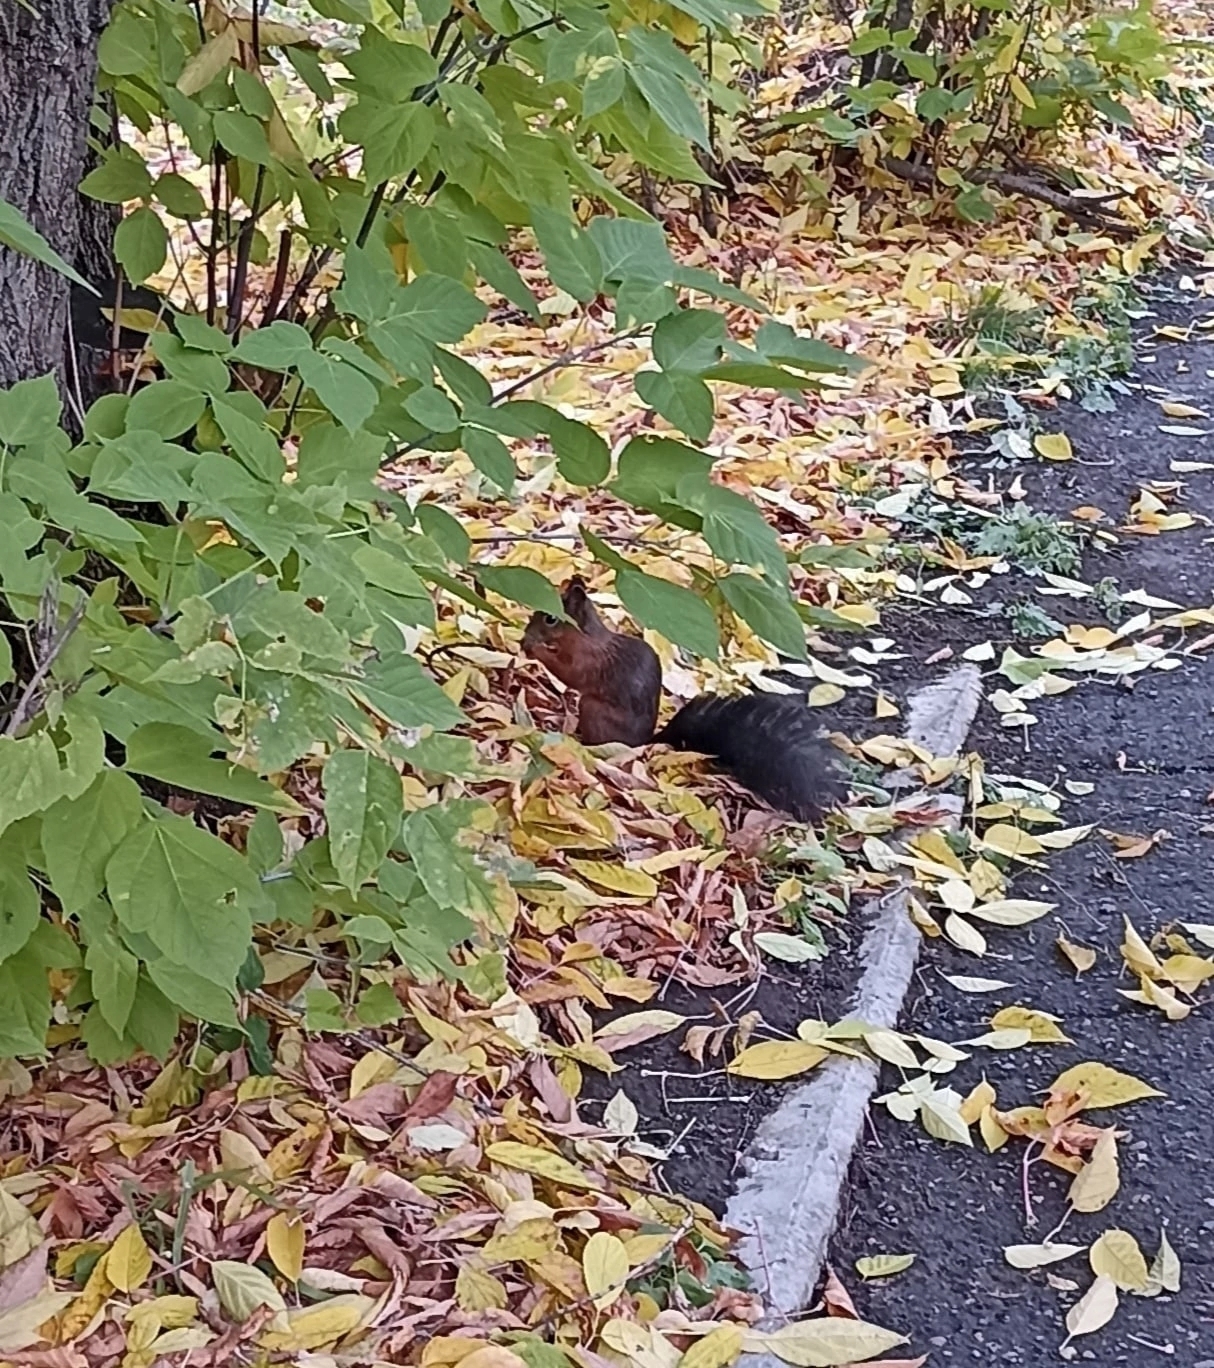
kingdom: Animalia
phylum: Chordata
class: Mammalia
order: Rodentia
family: Sciuridae
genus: Sciurus
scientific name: Sciurus vulgaris
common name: Eurasian red squirrel
